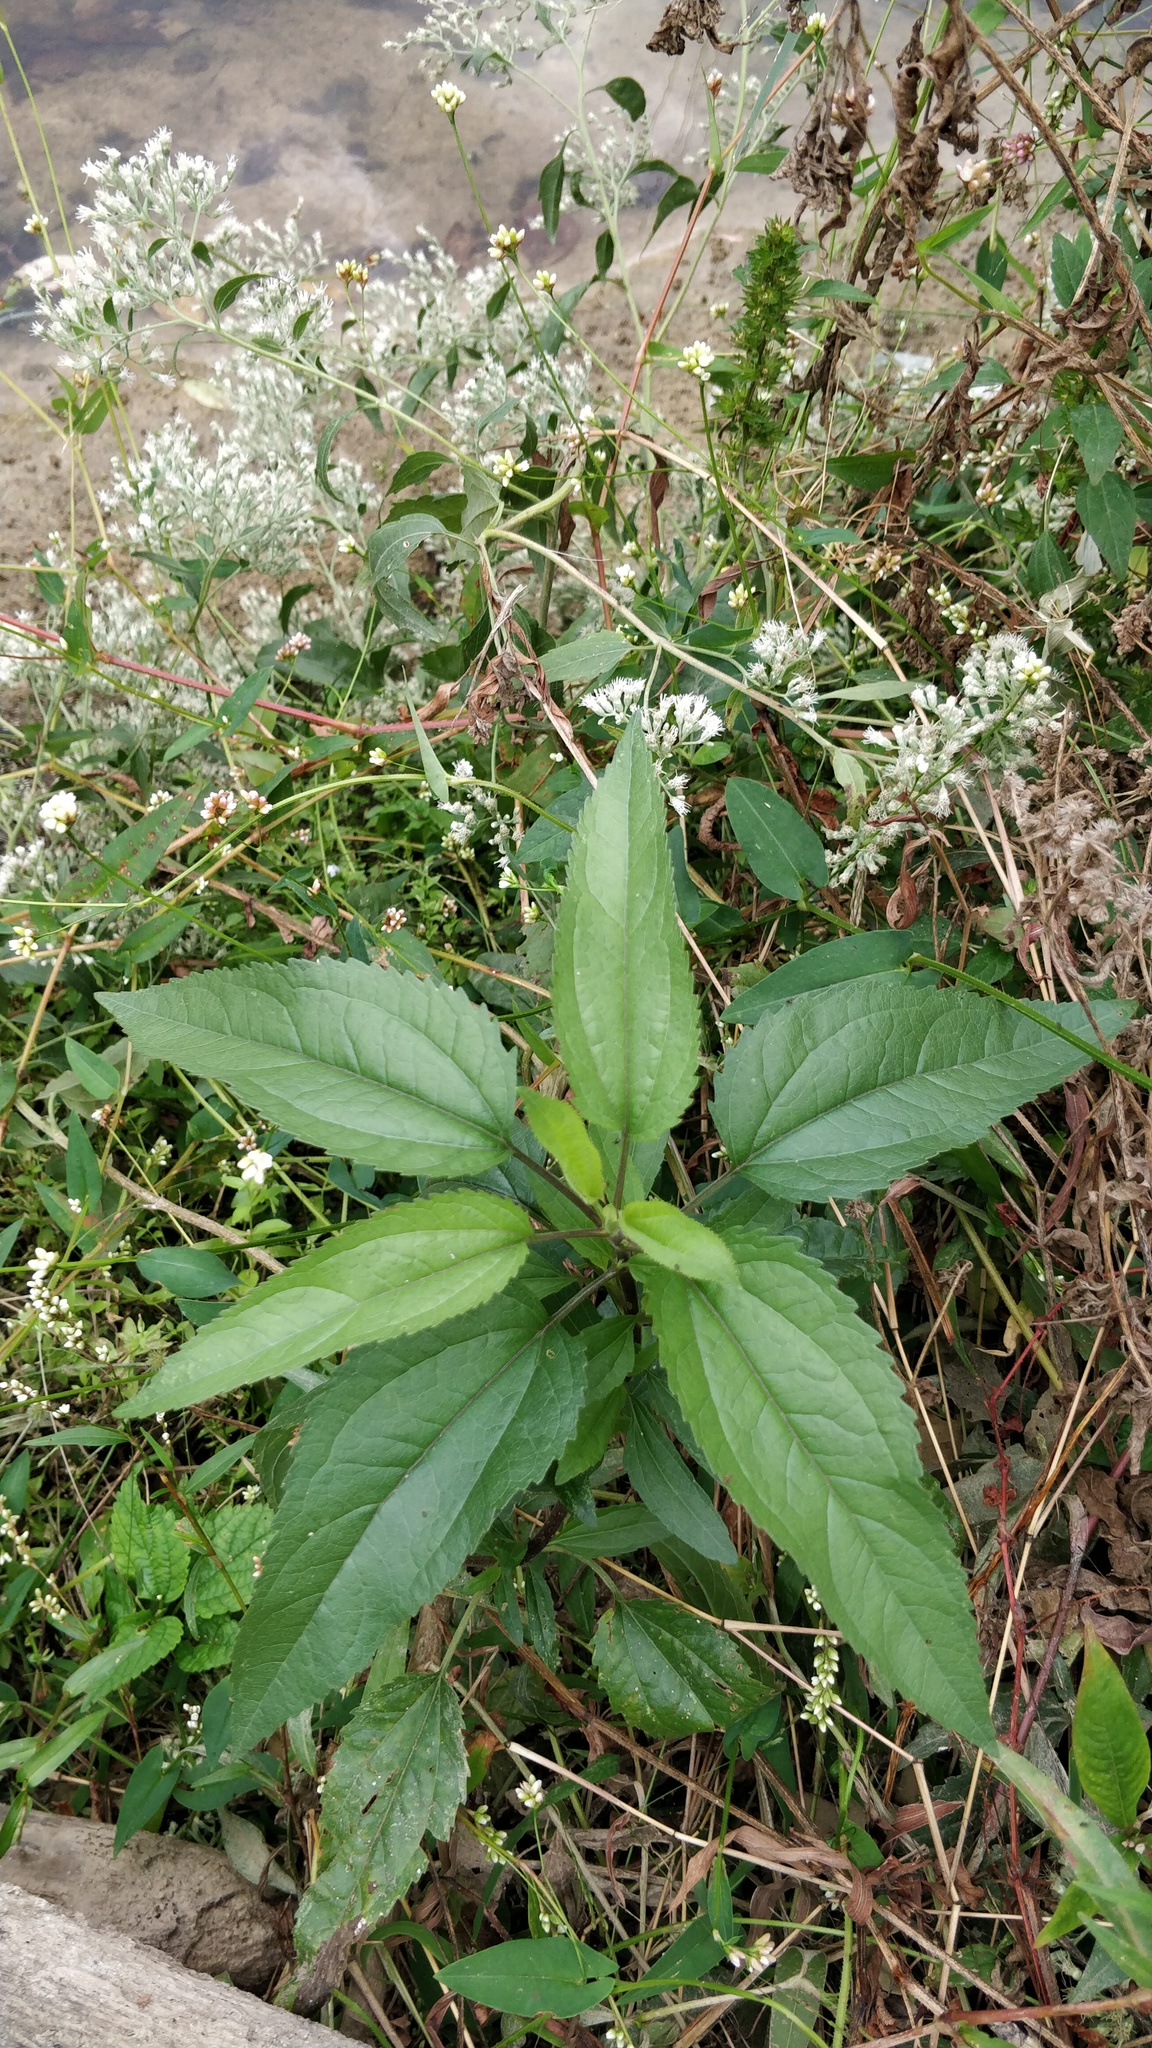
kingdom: Plantae
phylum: Tracheophyta
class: Magnoliopsida
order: Asterales
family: Asteraceae
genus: Eupatorium
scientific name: Eupatorium serotinum
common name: Late boneset
